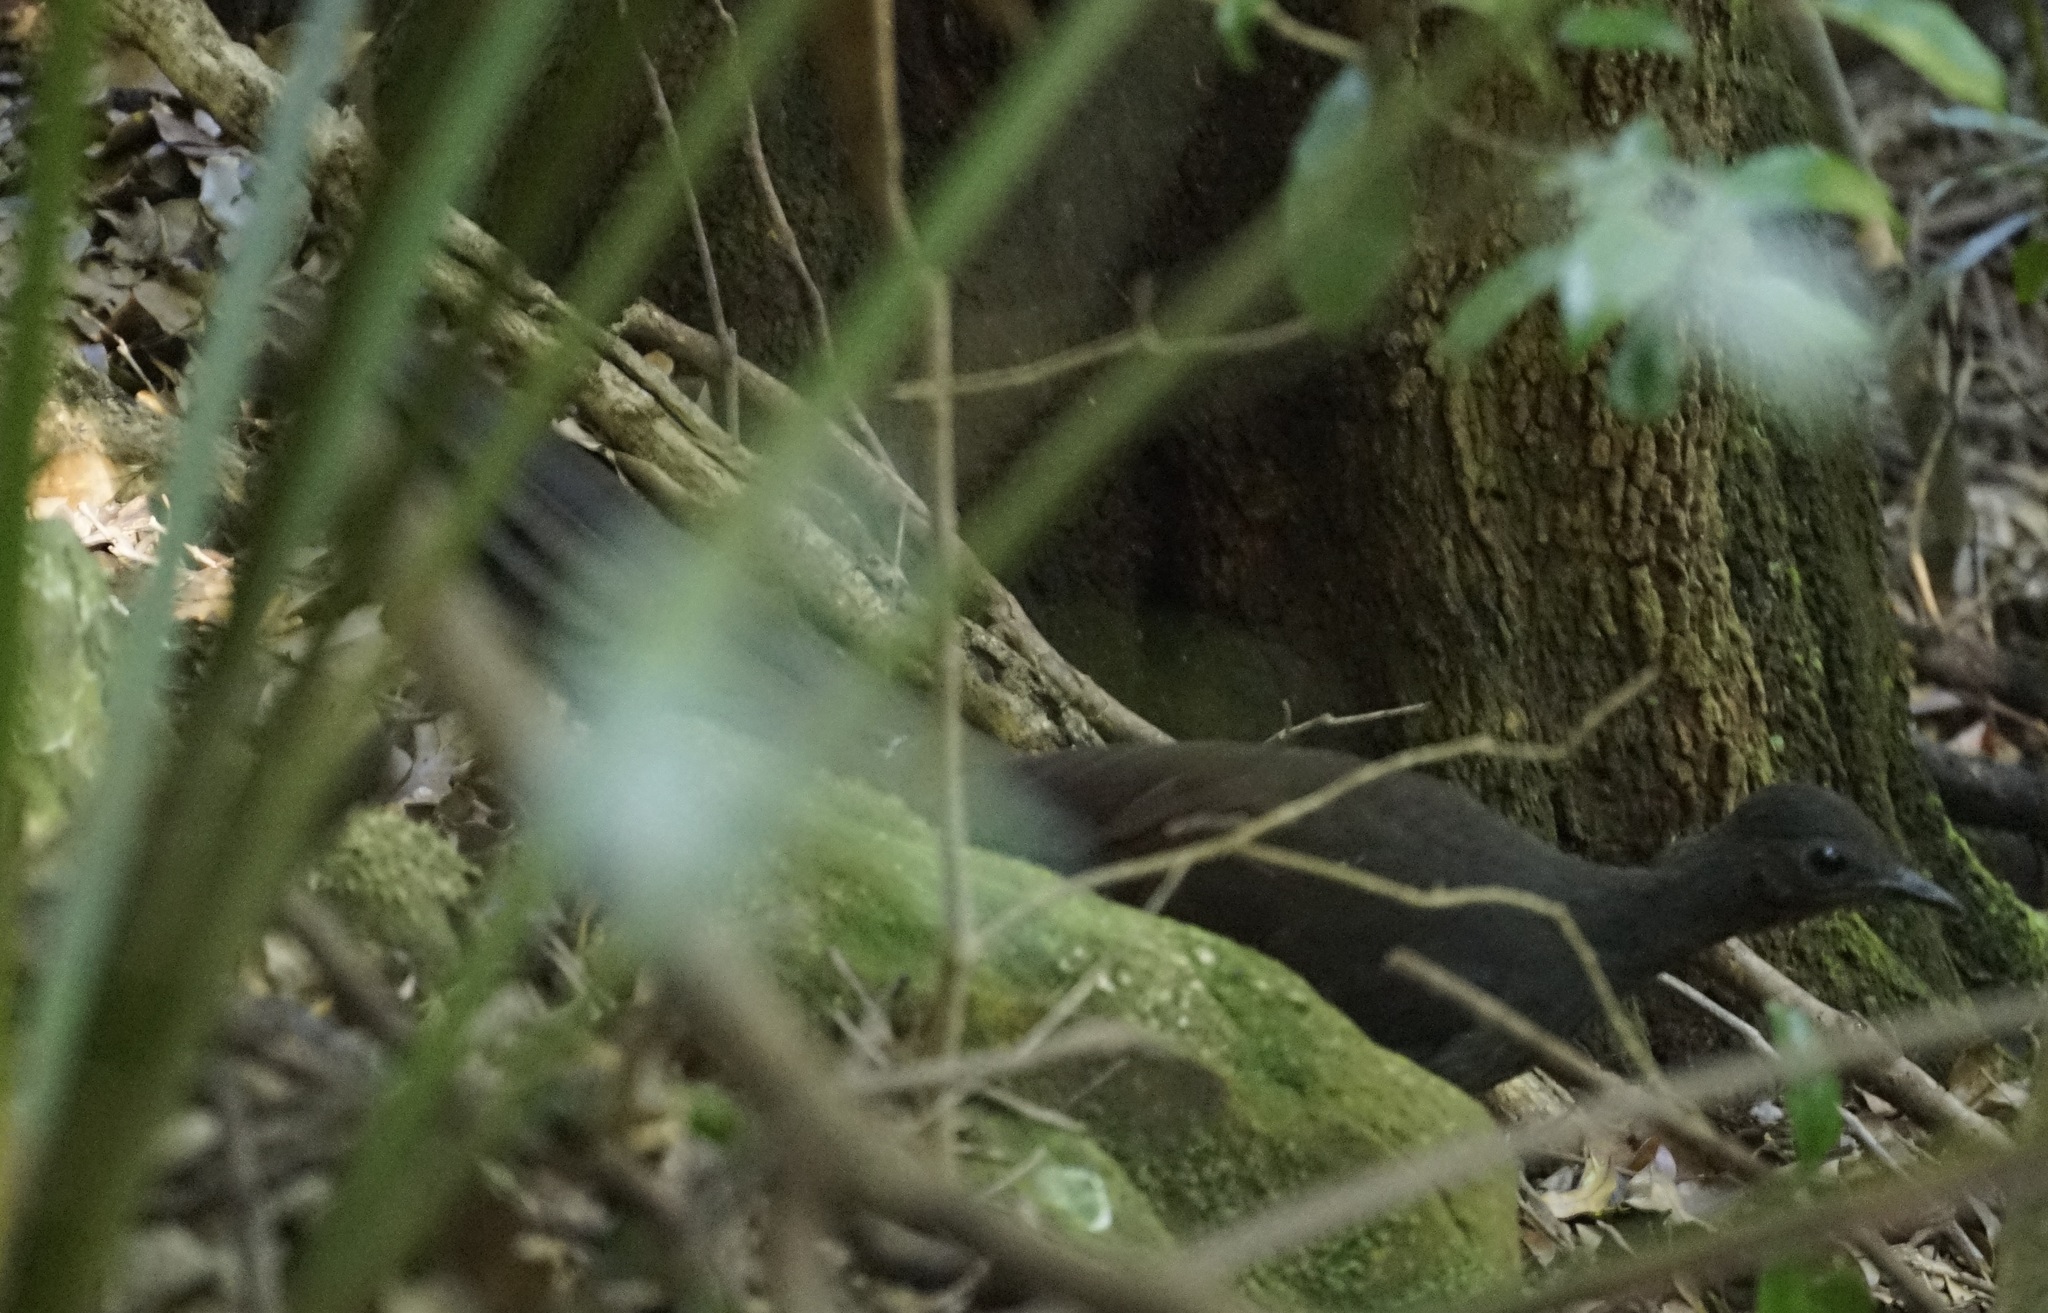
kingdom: Animalia
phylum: Chordata
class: Aves
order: Passeriformes
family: Menuridae
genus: Menura
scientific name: Menura novaehollandiae
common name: Superb lyrebird
